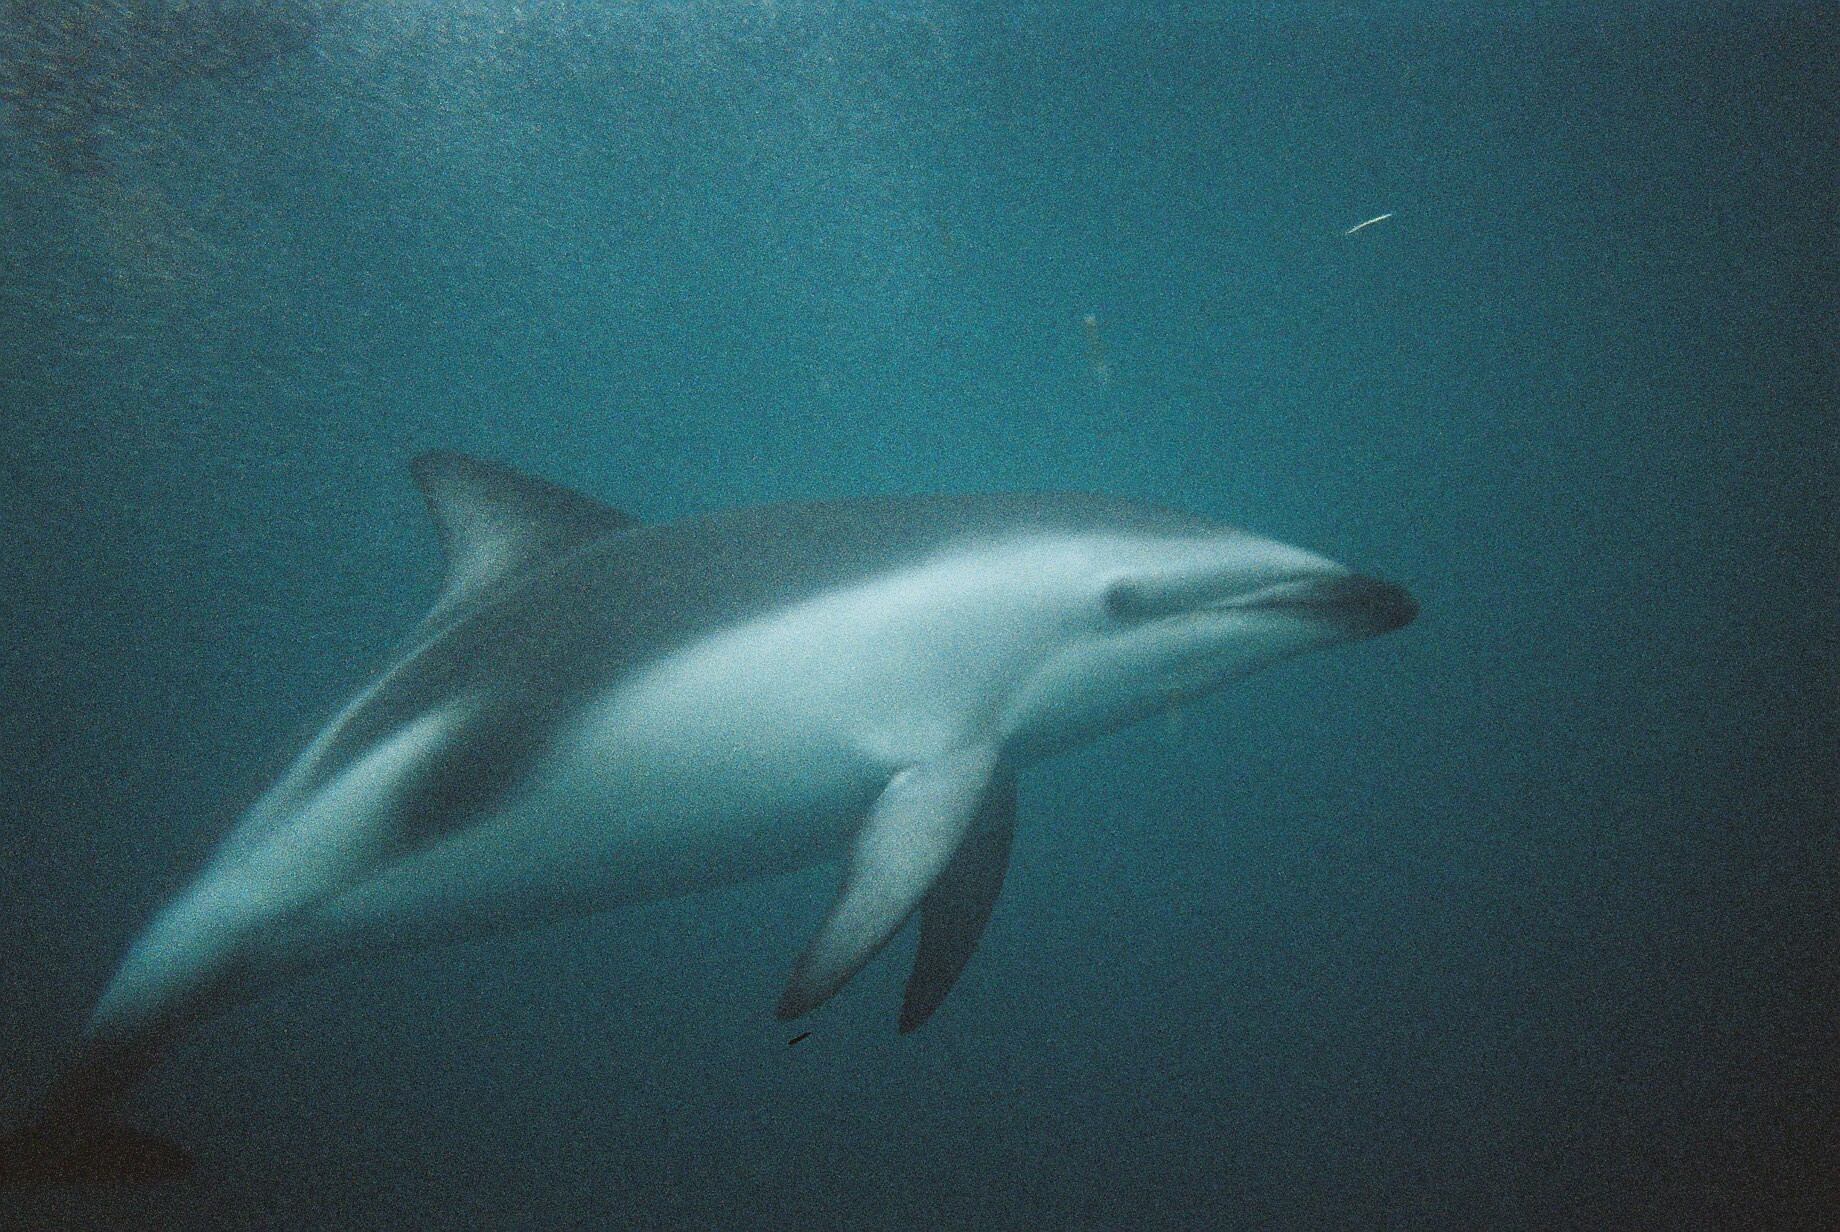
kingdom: Animalia
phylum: Chordata
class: Mammalia
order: Cetacea
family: Delphinidae
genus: Lagenorhynchus
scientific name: Lagenorhynchus obscurus
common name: Dusky dolphin
